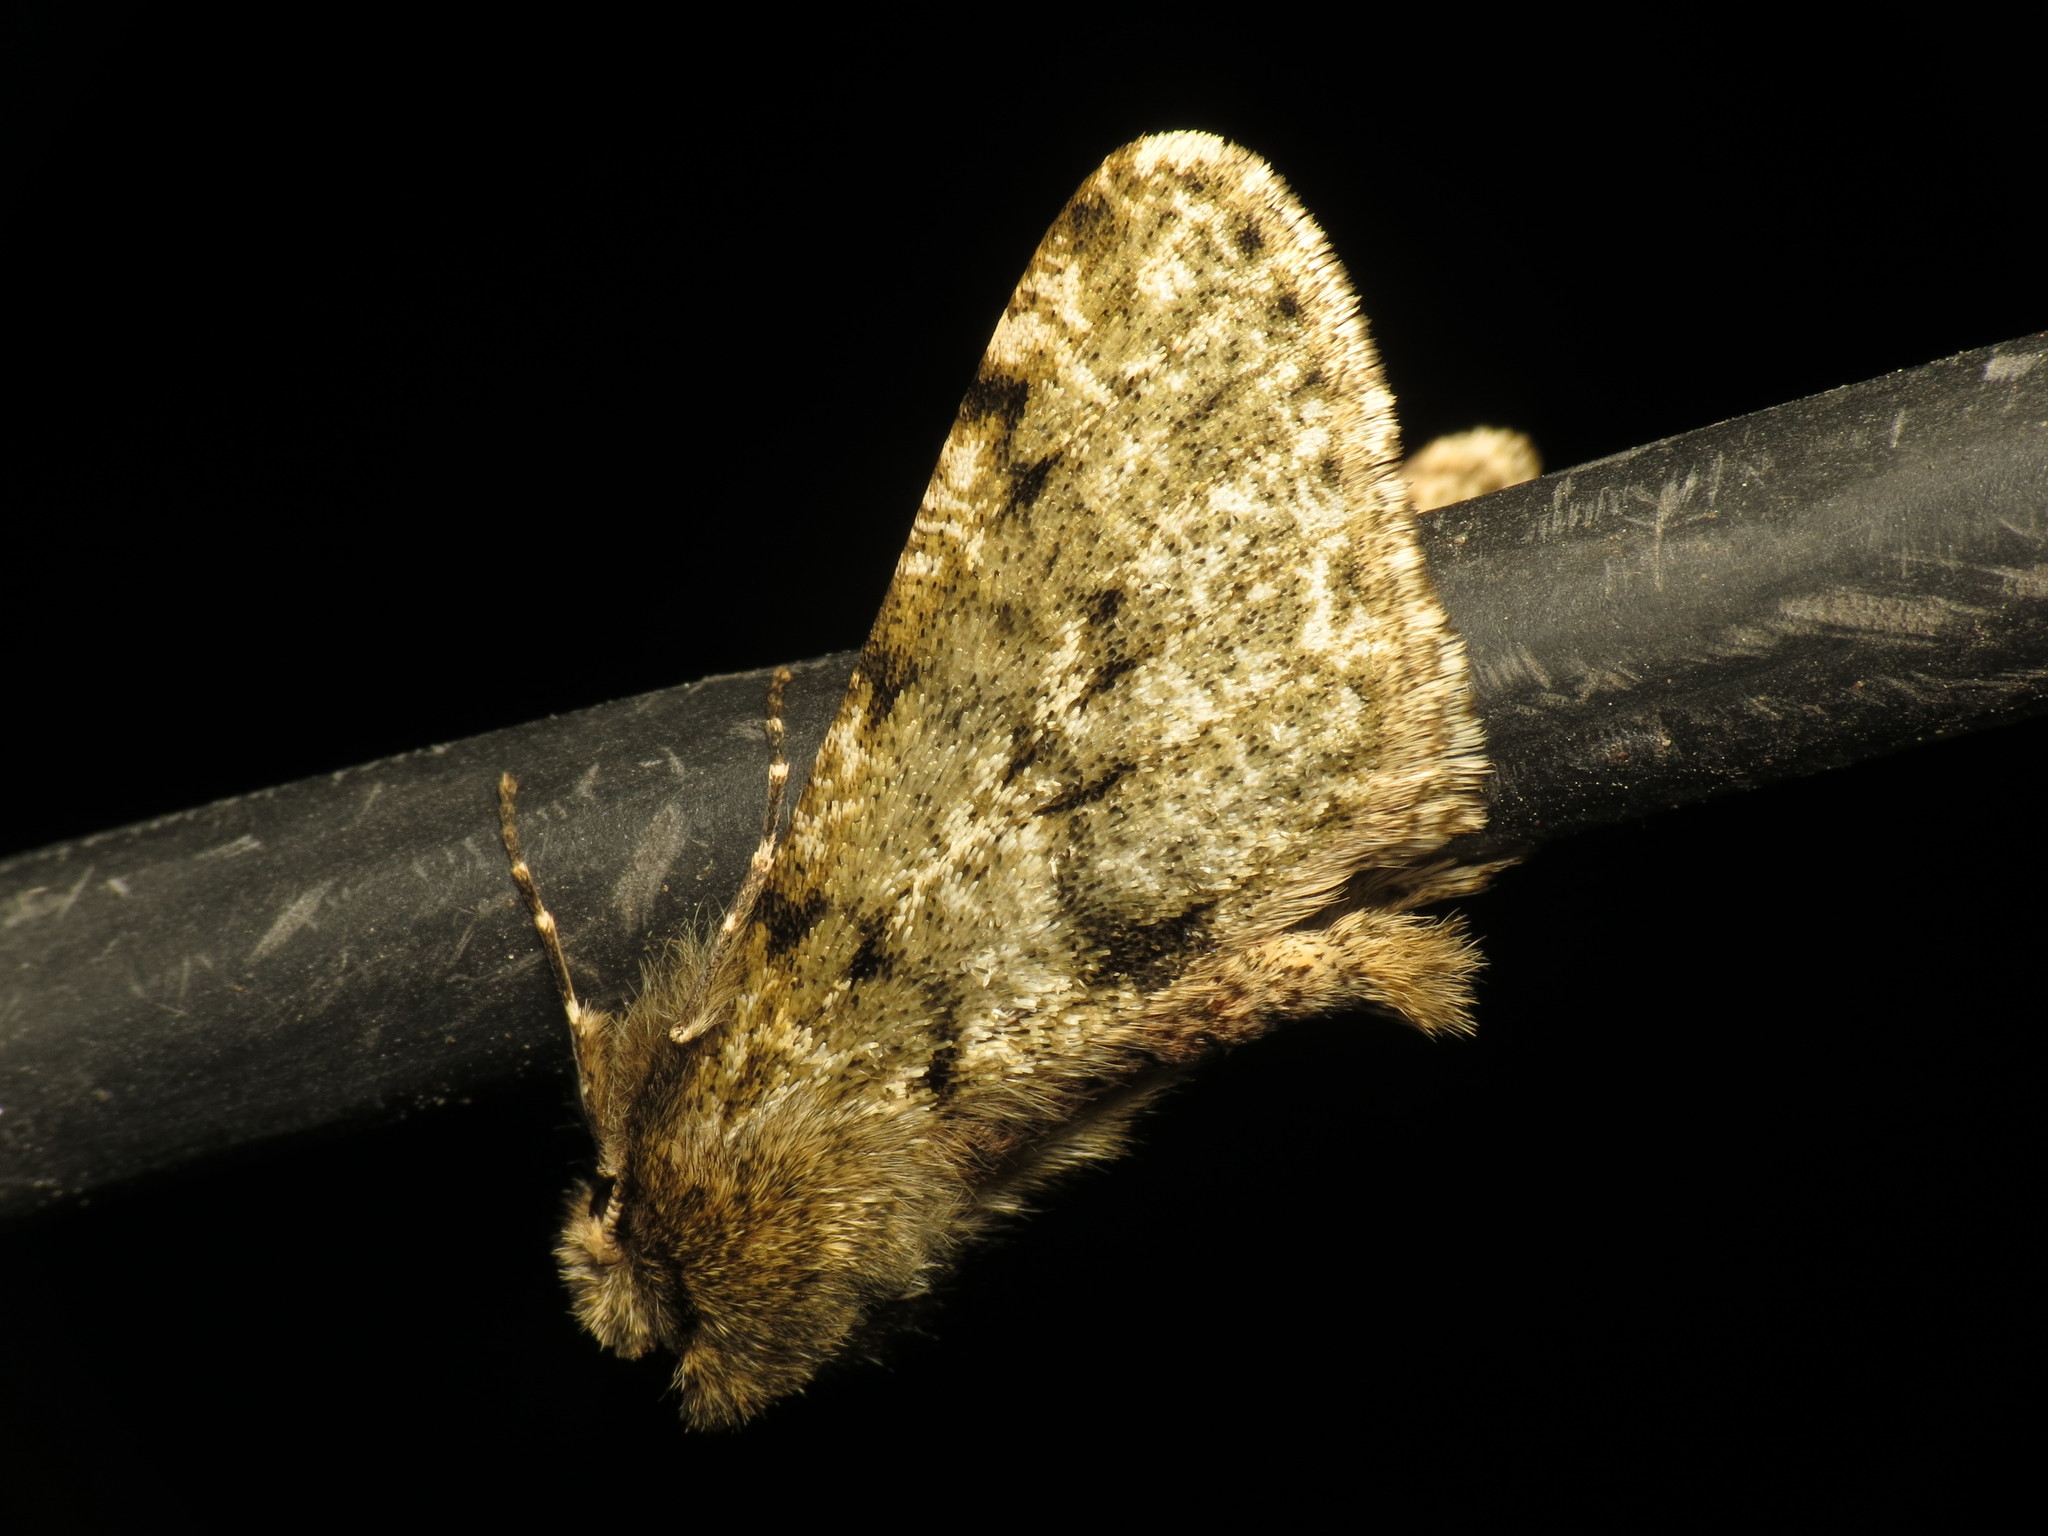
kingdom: Animalia
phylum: Arthropoda
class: Insecta
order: Lepidoptera
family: Geometridae
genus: Phigalia
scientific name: Phigalia pilosaria
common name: Pale brindled beauty
